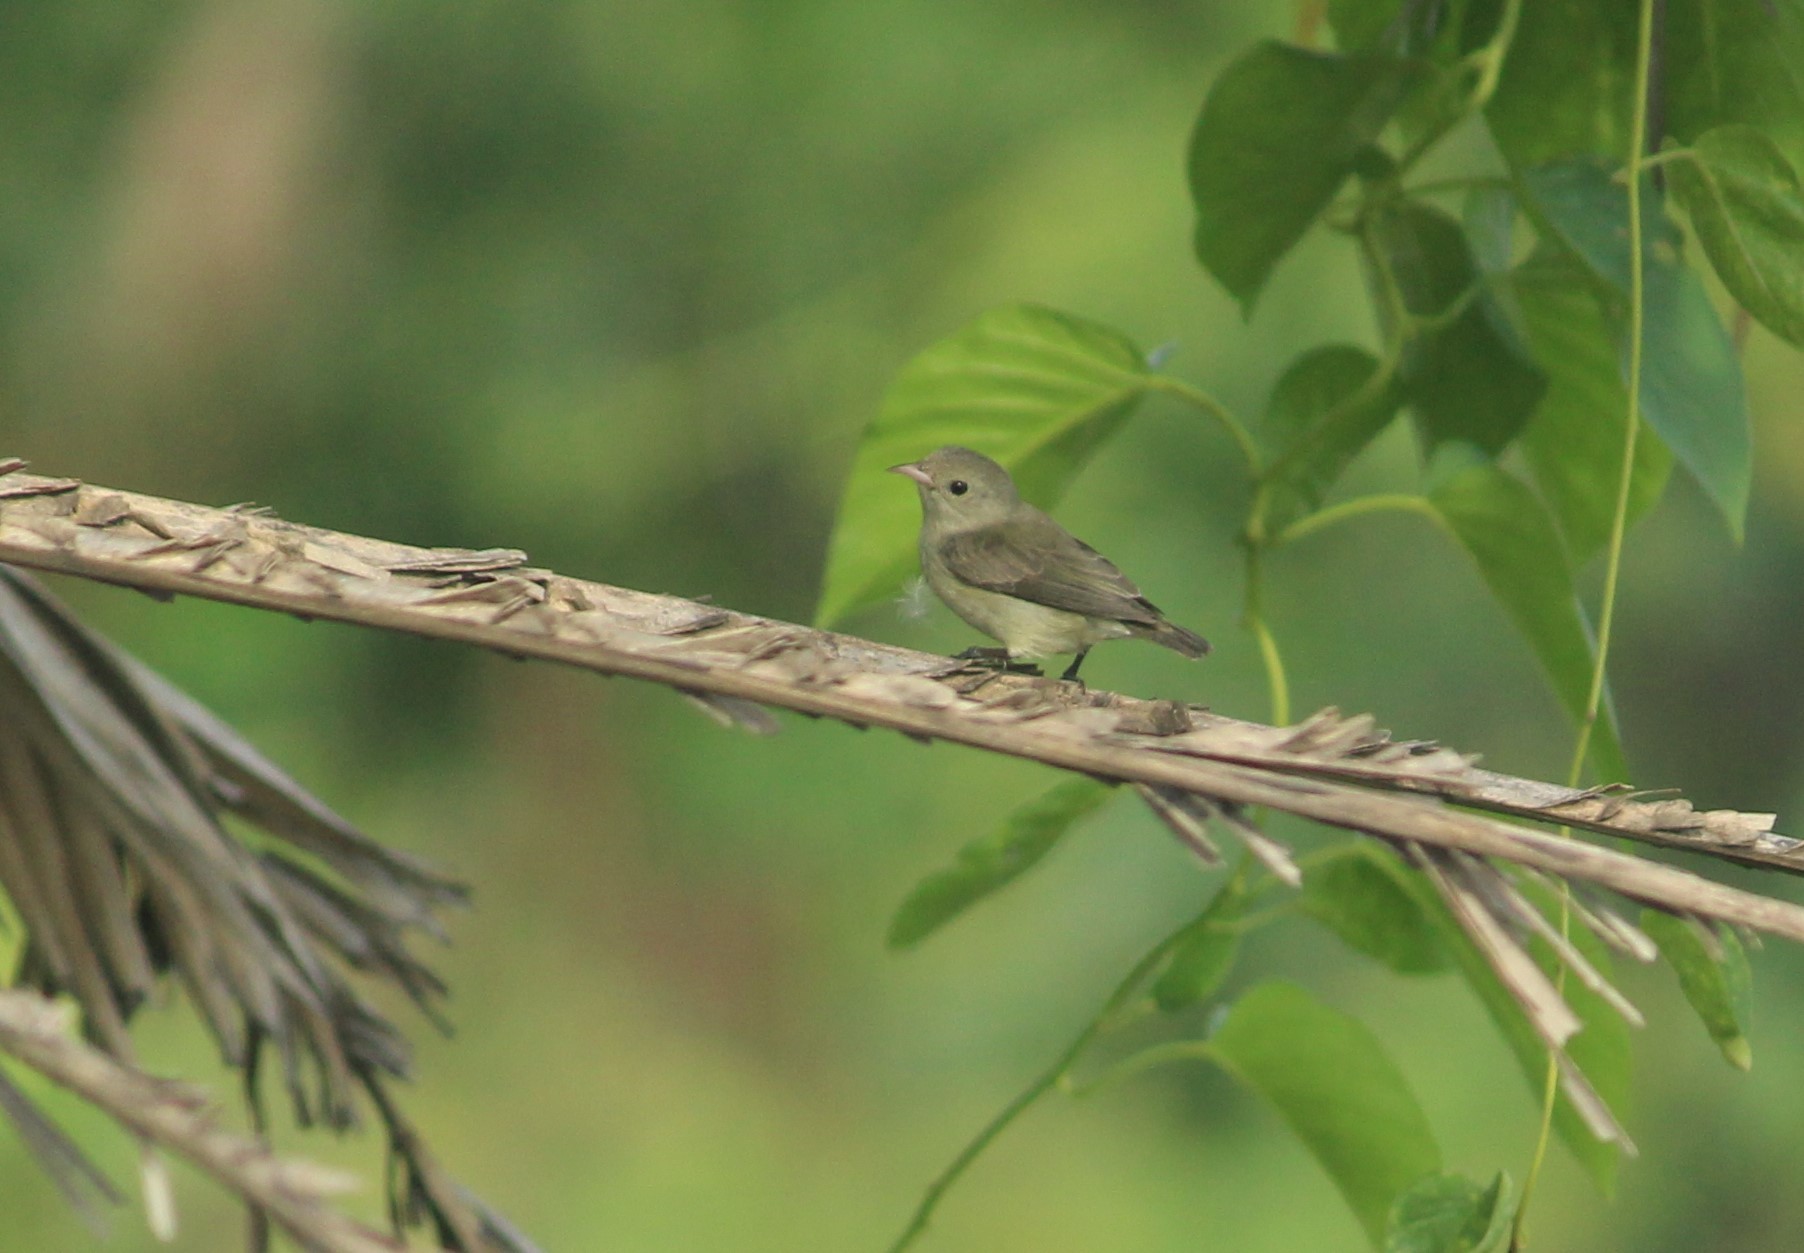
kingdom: Animalia
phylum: Chordata
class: Aves
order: Passeriformes
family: Dicaeidae
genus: Dicaeum
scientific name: Dicaeum erythrorhynchos
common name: Pale-billed flowerpecker
